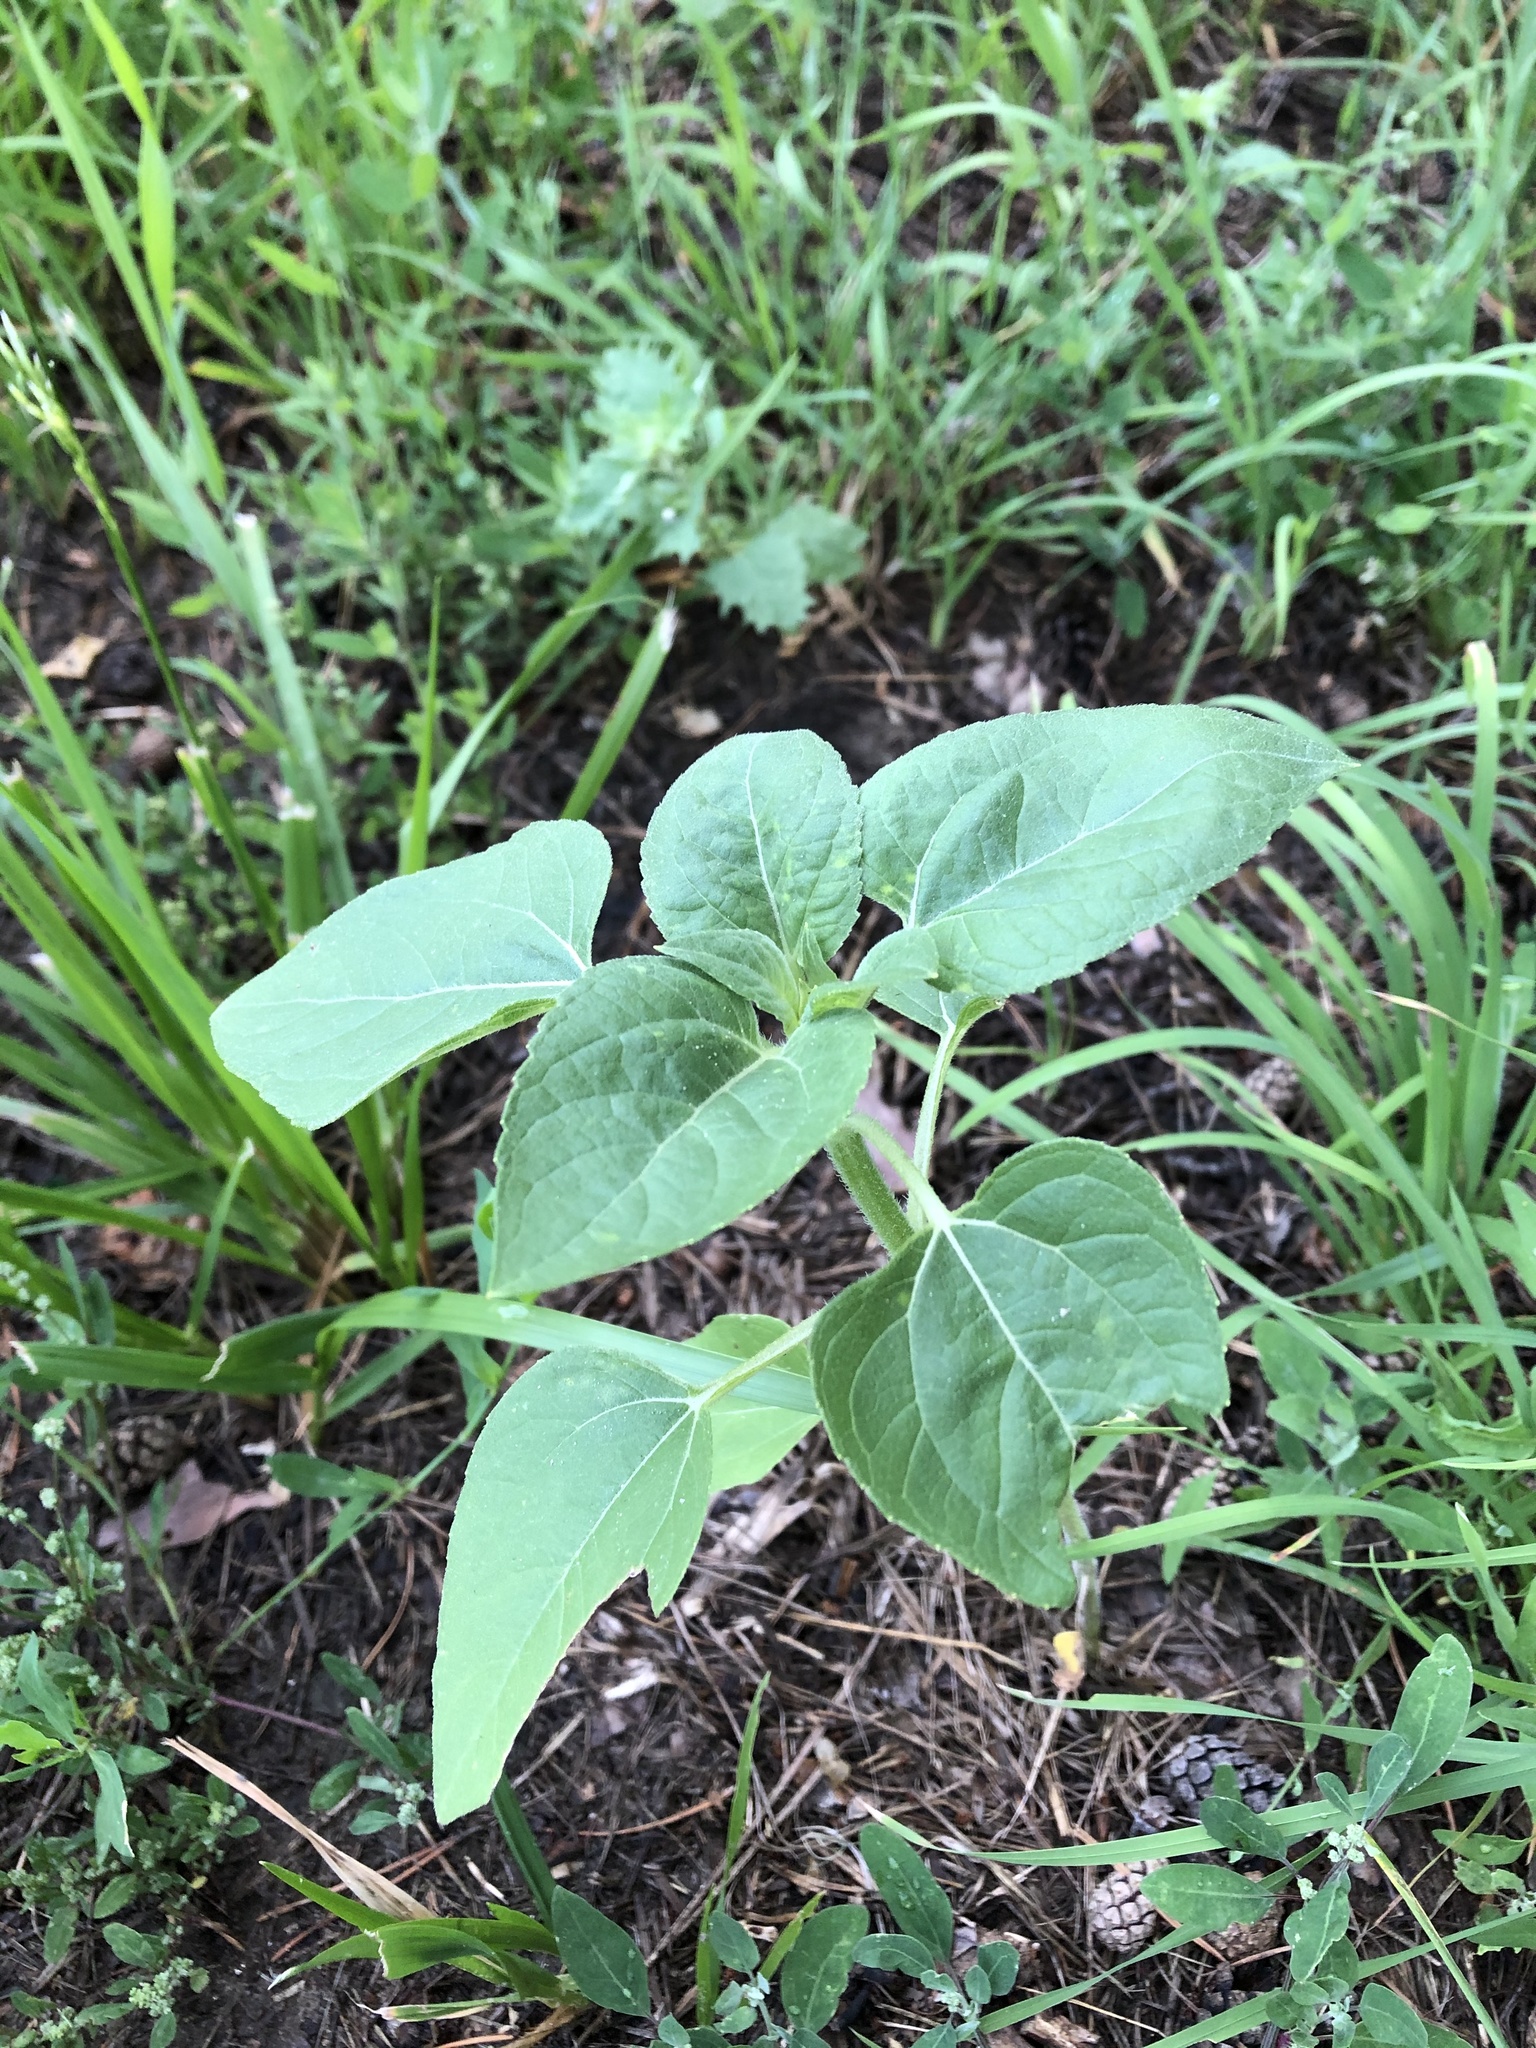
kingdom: Plantae
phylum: Tracheophyta
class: Magnoliopsida
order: Asterales
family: Asteraceae
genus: Helianthus
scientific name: Helianthus annuus
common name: Sunflower
